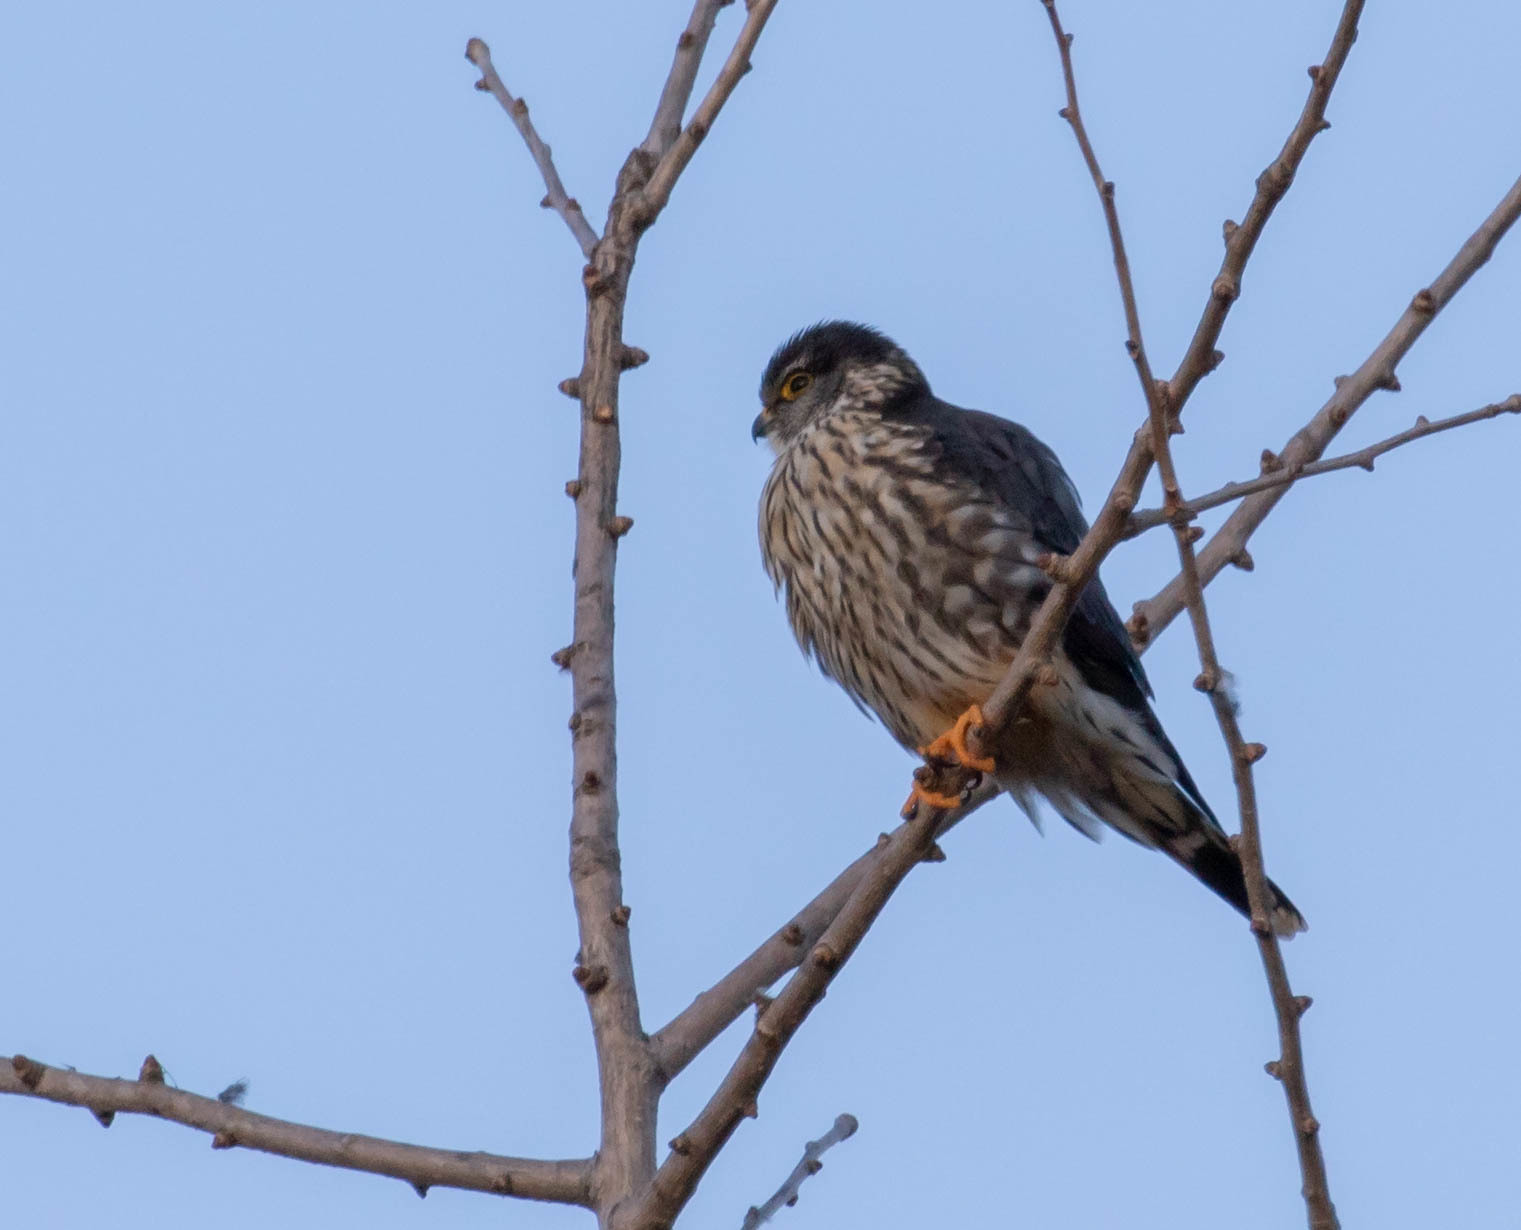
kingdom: Animalia
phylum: Chordata
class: Aves
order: Falconiformes
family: Falconidae
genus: Falco
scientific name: Falco columbarius
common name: Merlin
